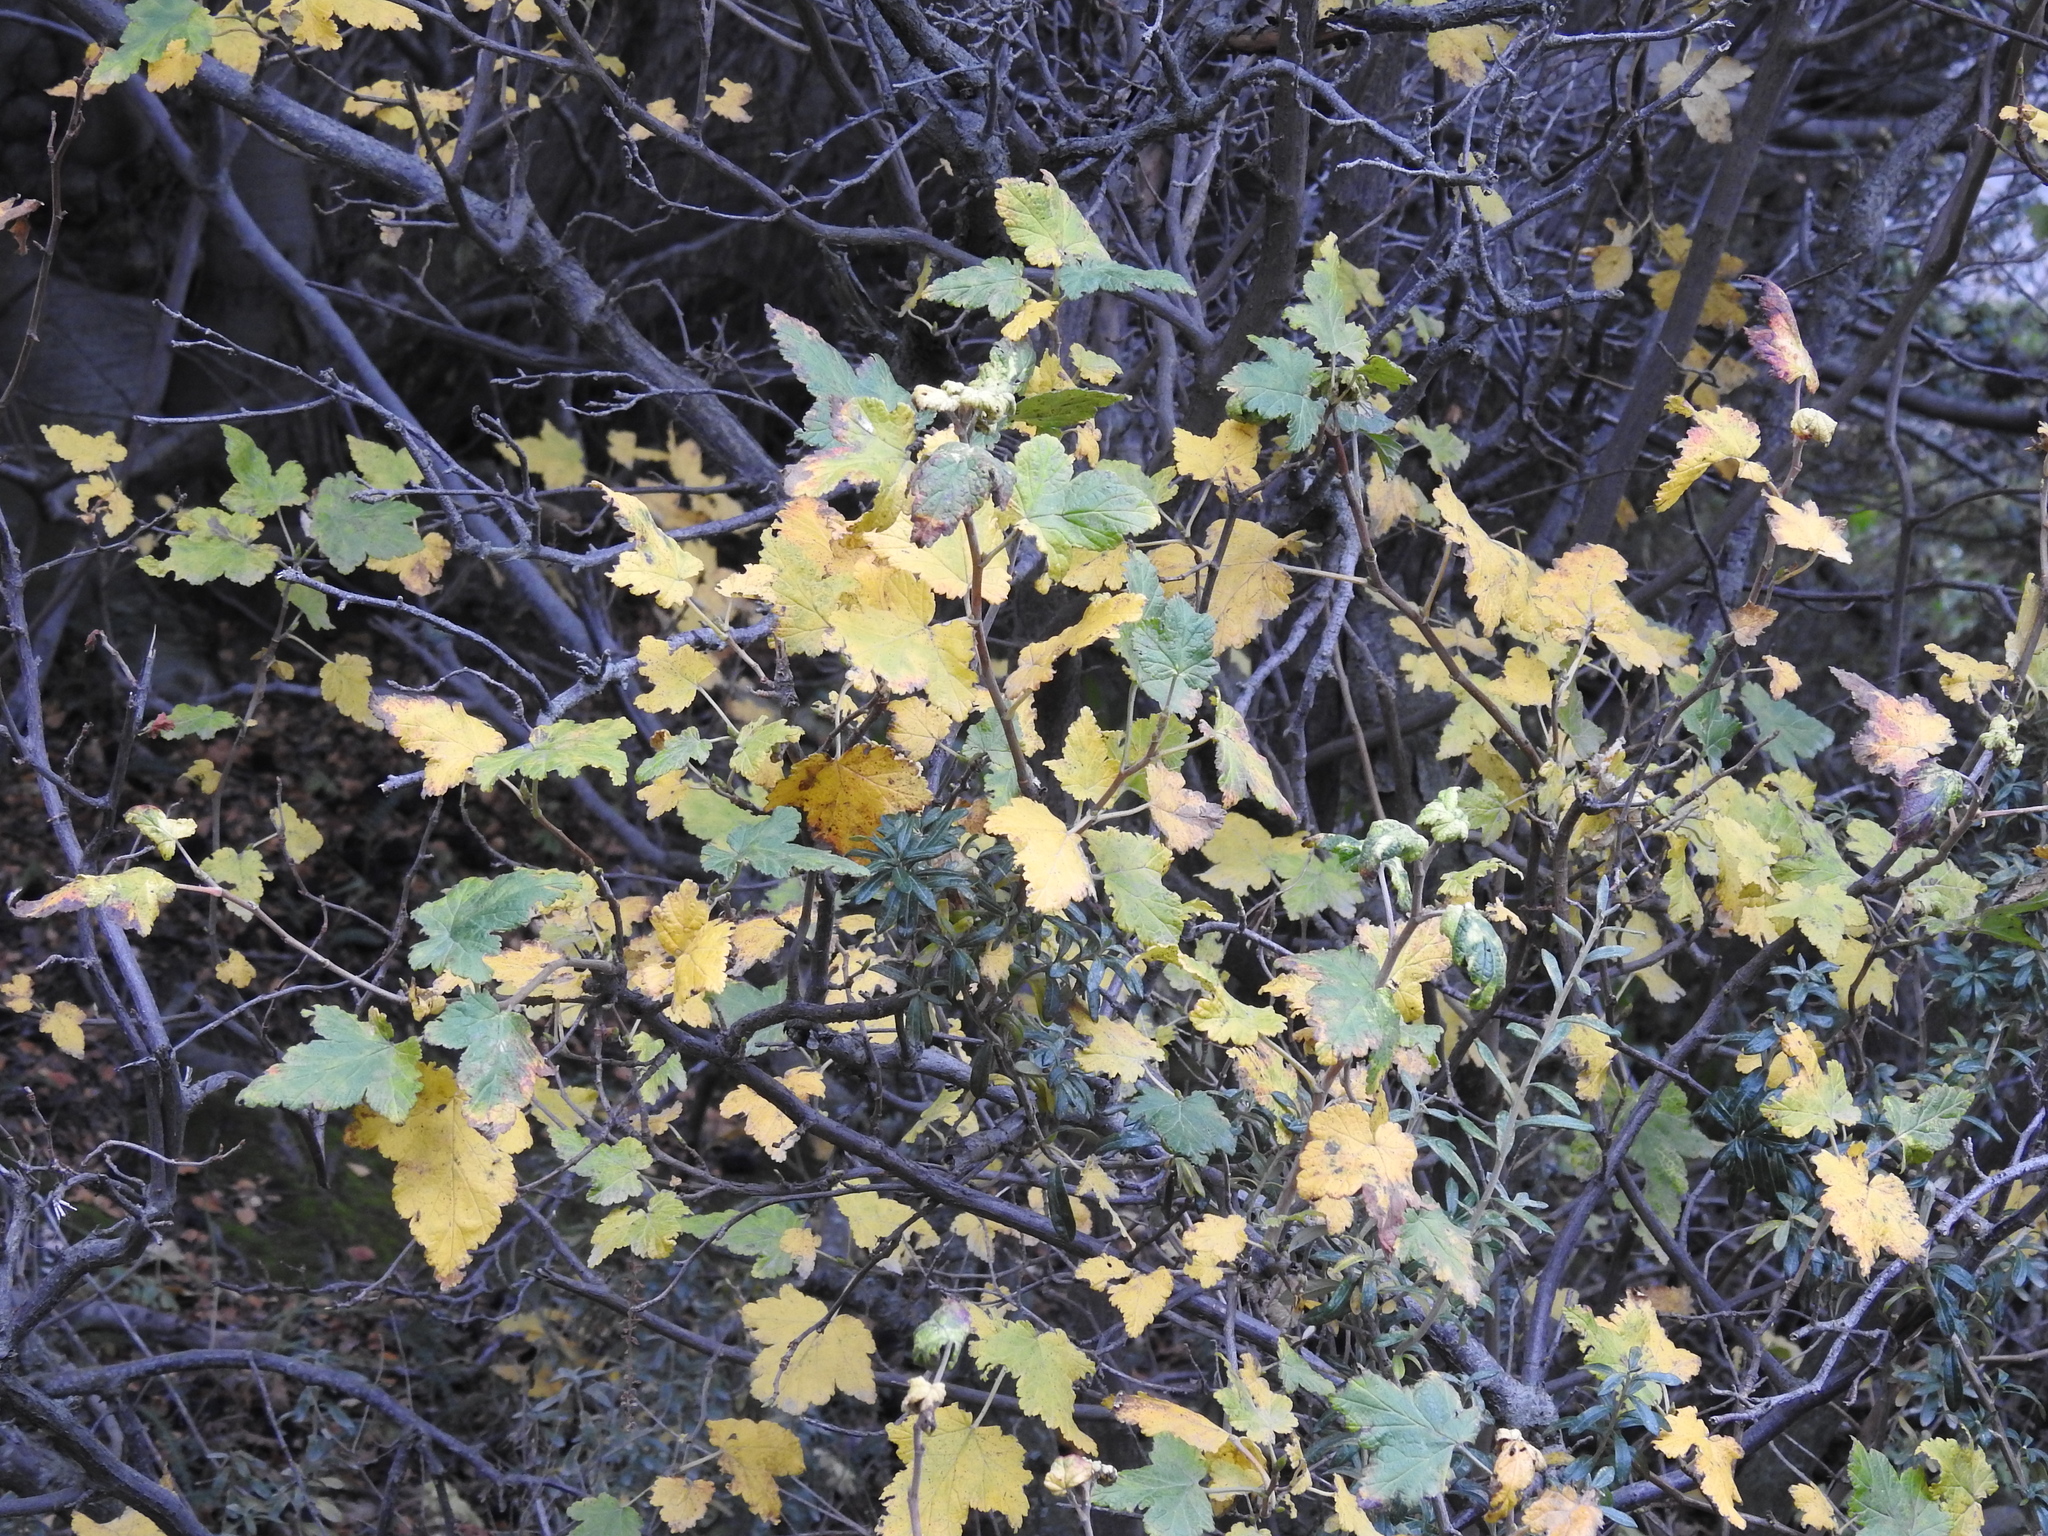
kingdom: Plantae
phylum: Tracheophyta
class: Magnoliopsida
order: Saxifragales
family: Grossulariaceae
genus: Ribes
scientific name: Ribes magellanicum
